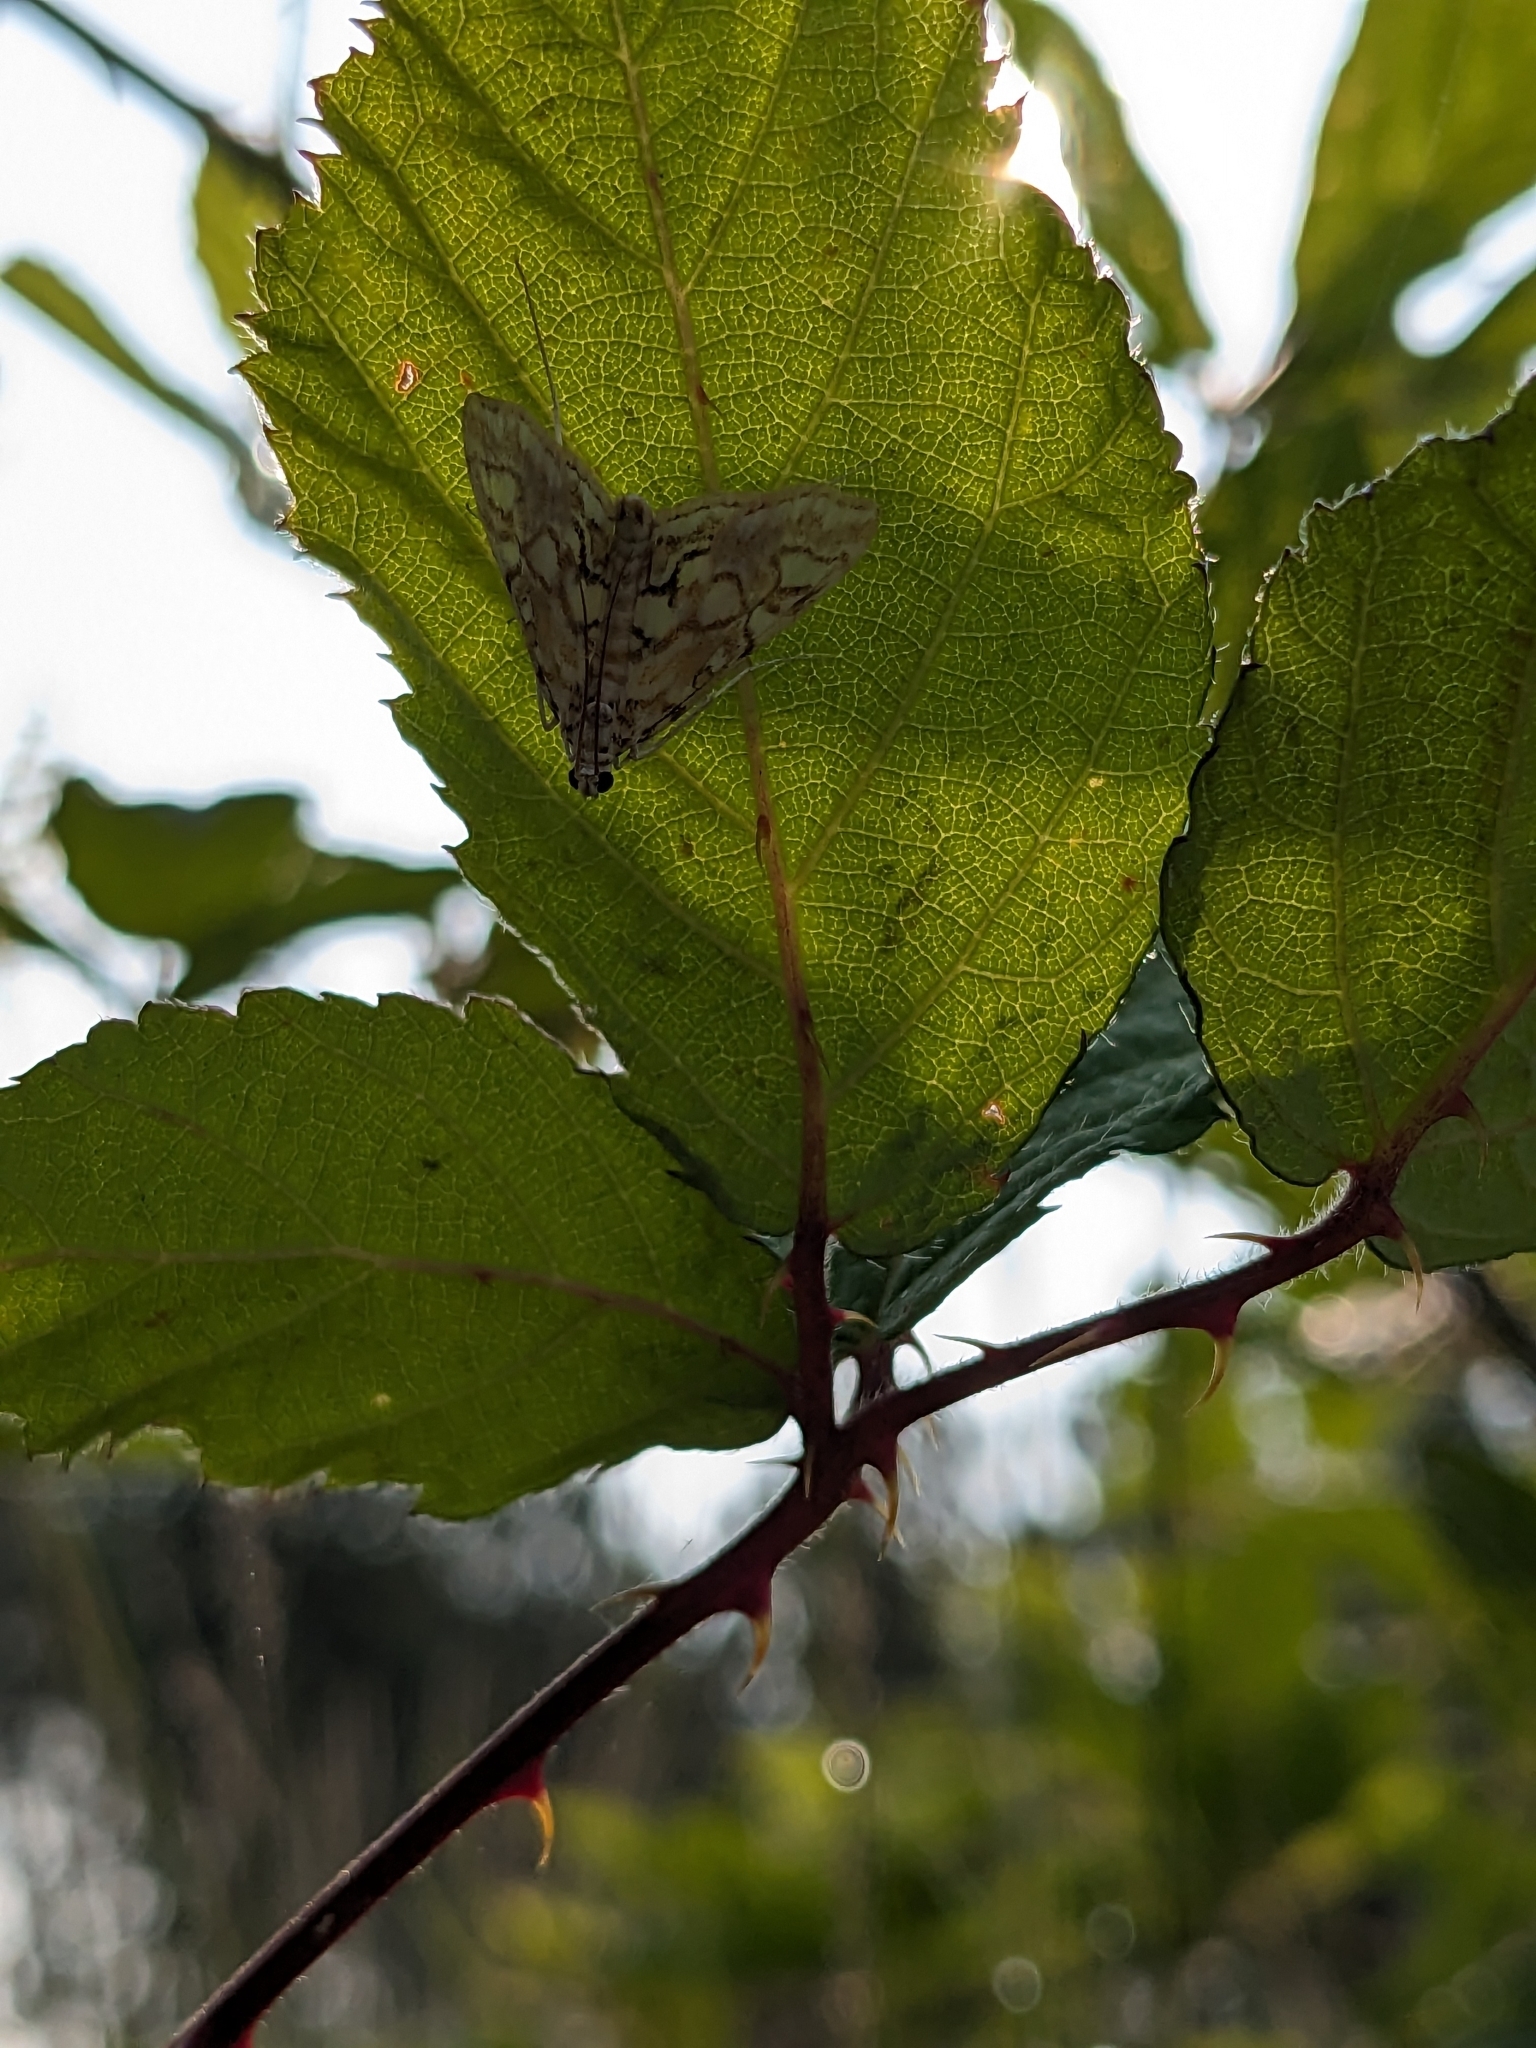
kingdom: Animalia
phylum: Arthropoda
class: Insecta
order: Lepidoptera
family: Crambidae
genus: Elophila
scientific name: Elophila nymphaeata
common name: Brown china-mark
